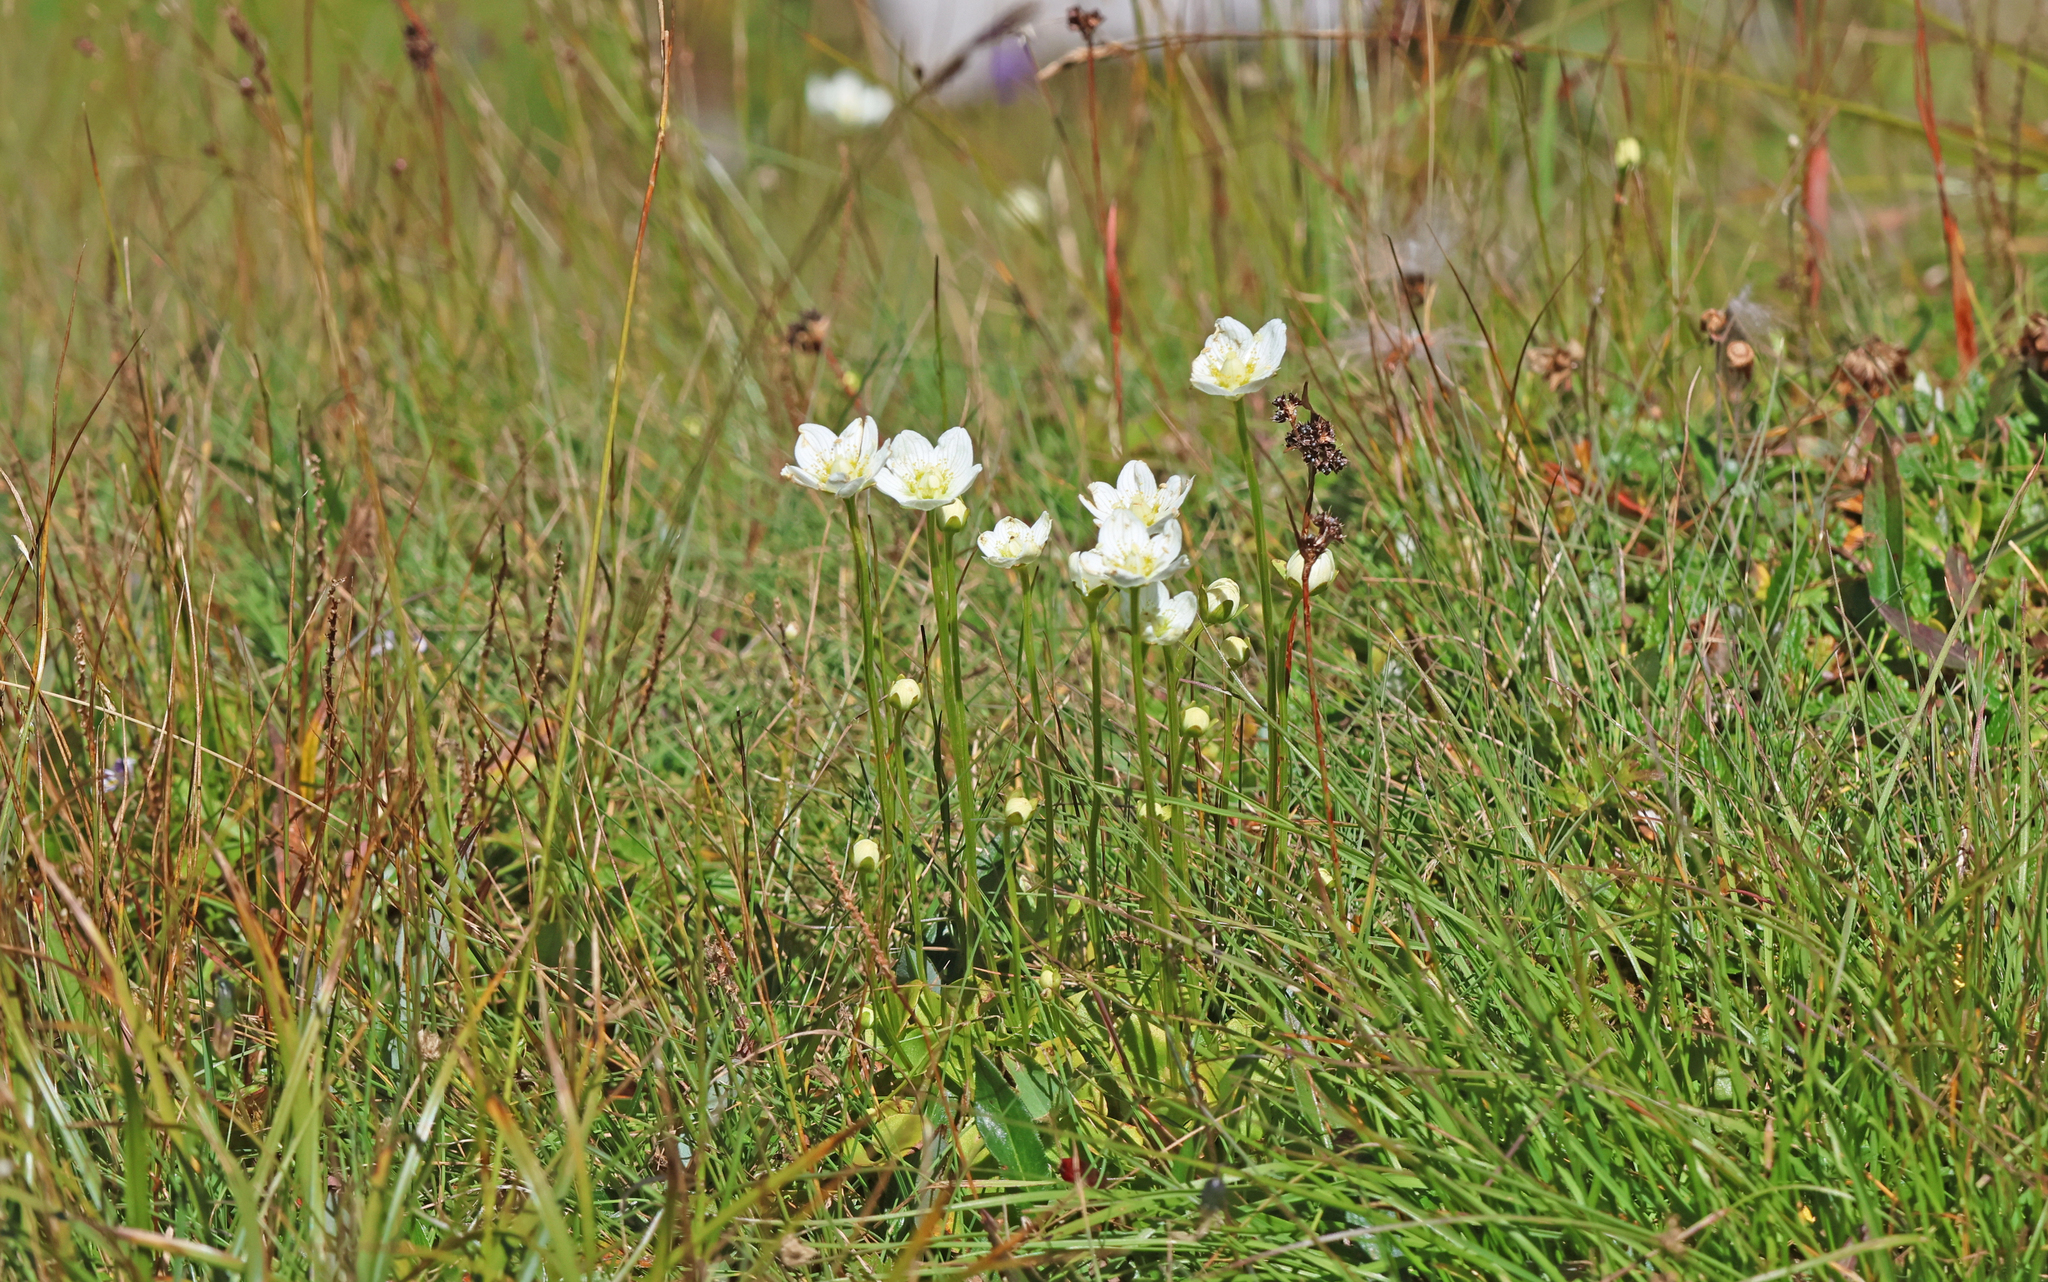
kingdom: Plantae
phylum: Tracheophyta
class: Magnoliopsida
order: Celastrales
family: Parnassiaceae
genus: Parnassia
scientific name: Parnassia palustris
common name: Grass-of-parnassus
